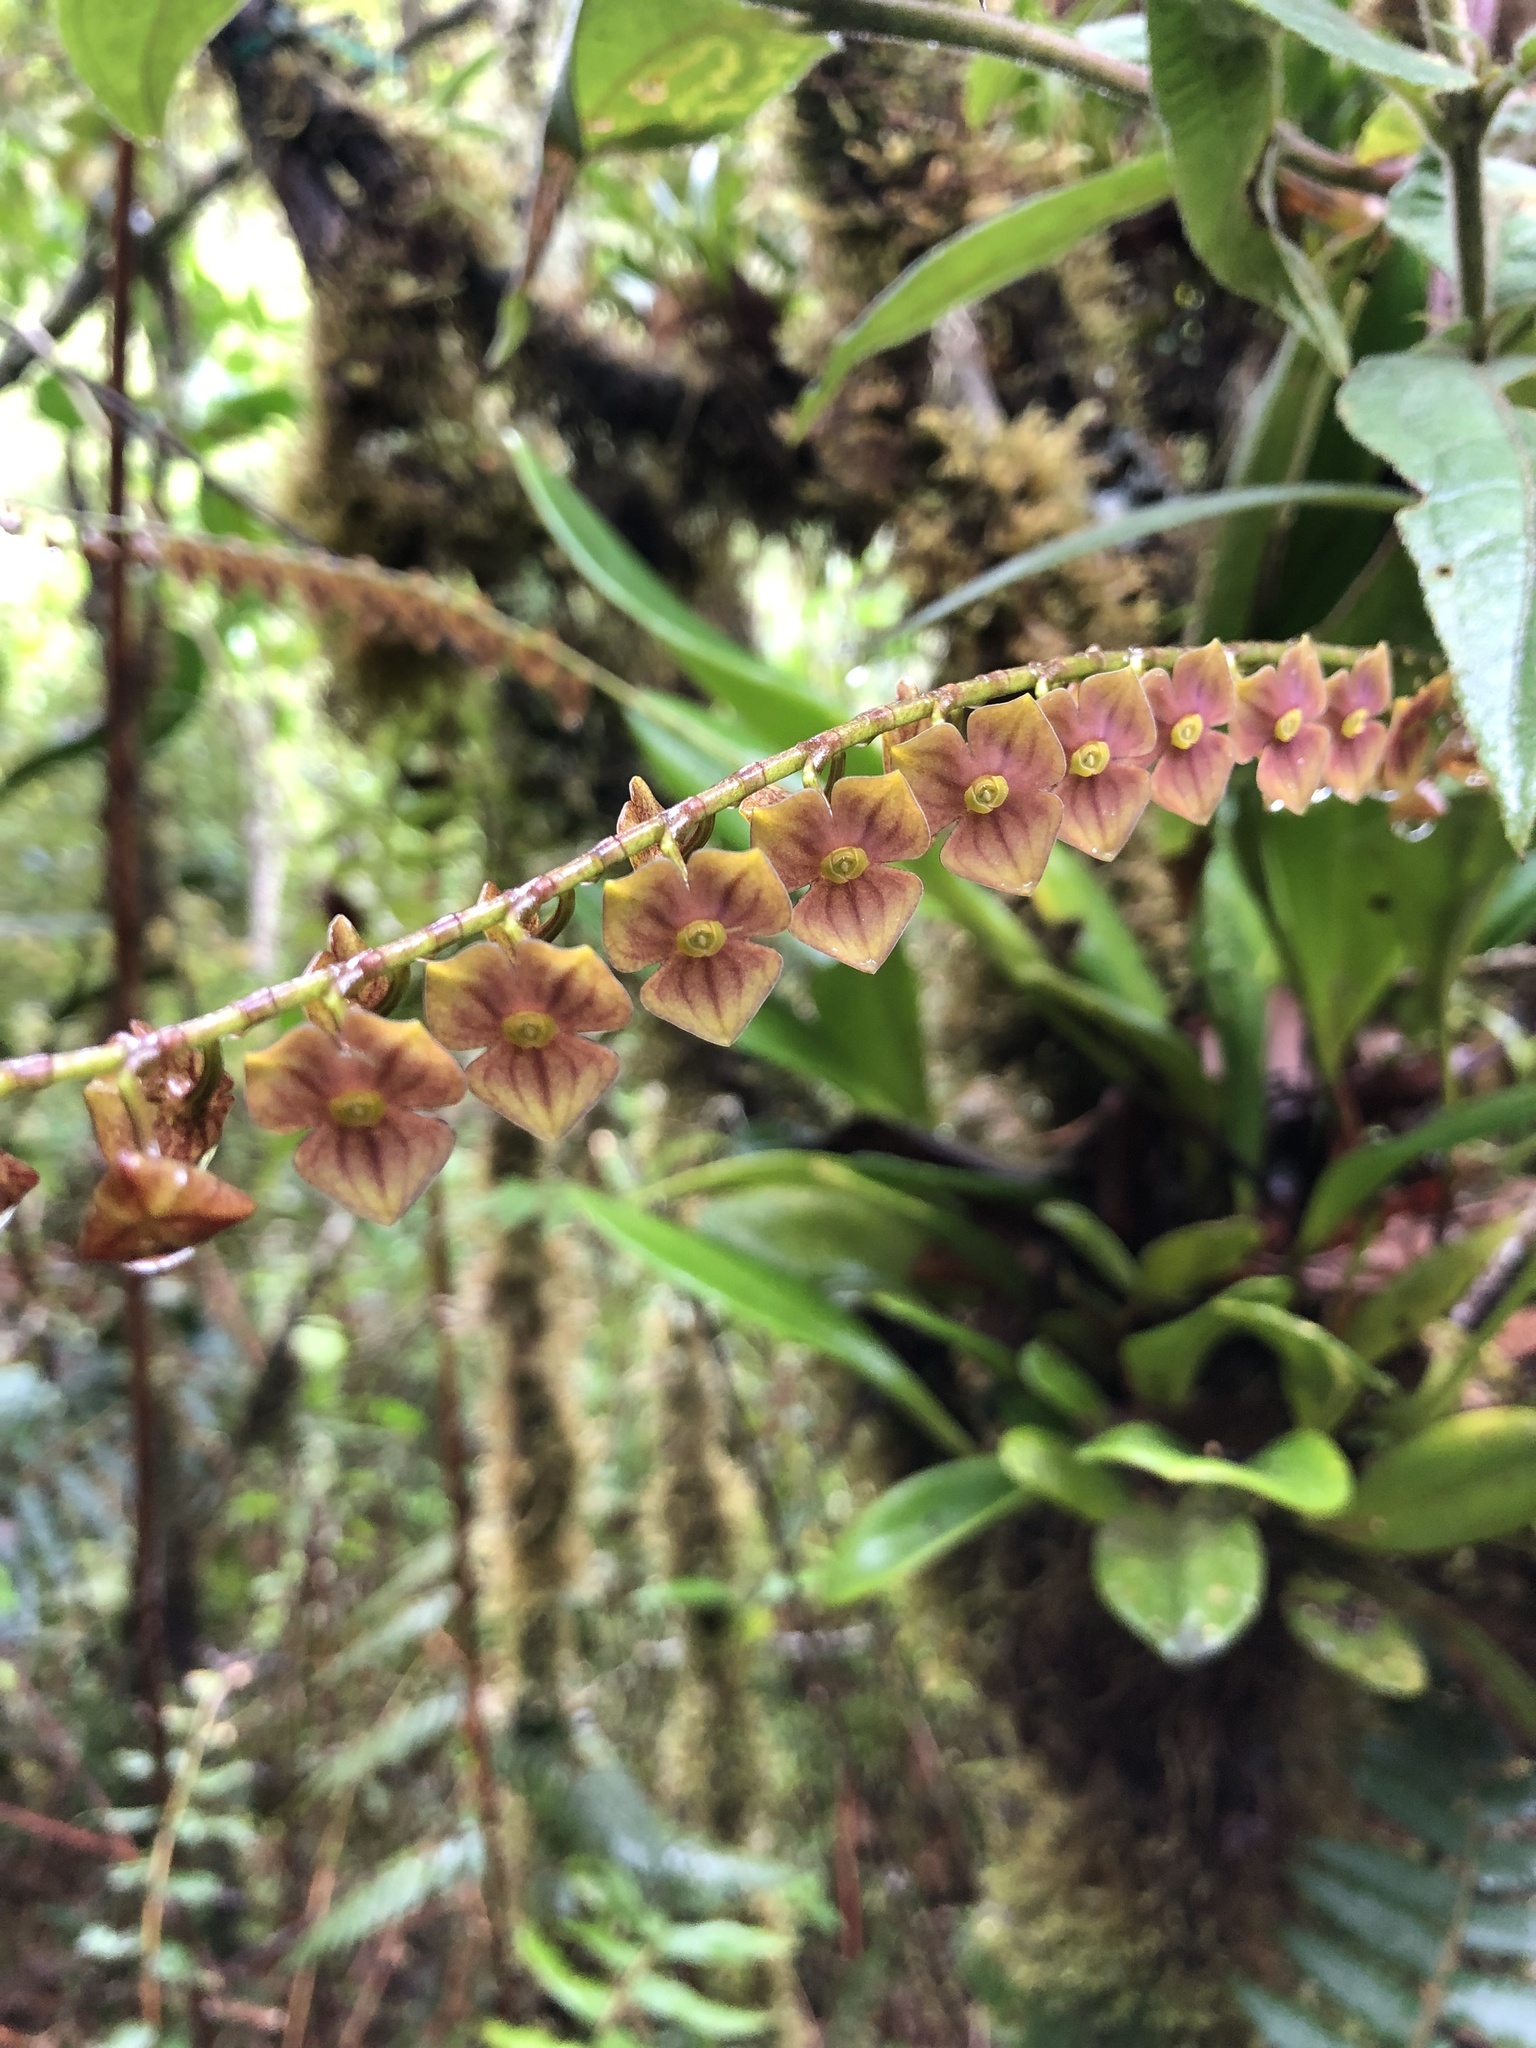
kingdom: Plantae
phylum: Tracheophyta
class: Liliopsida
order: Asparagales
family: Orchidaceae
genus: Stelis
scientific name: Stelis superbiens
